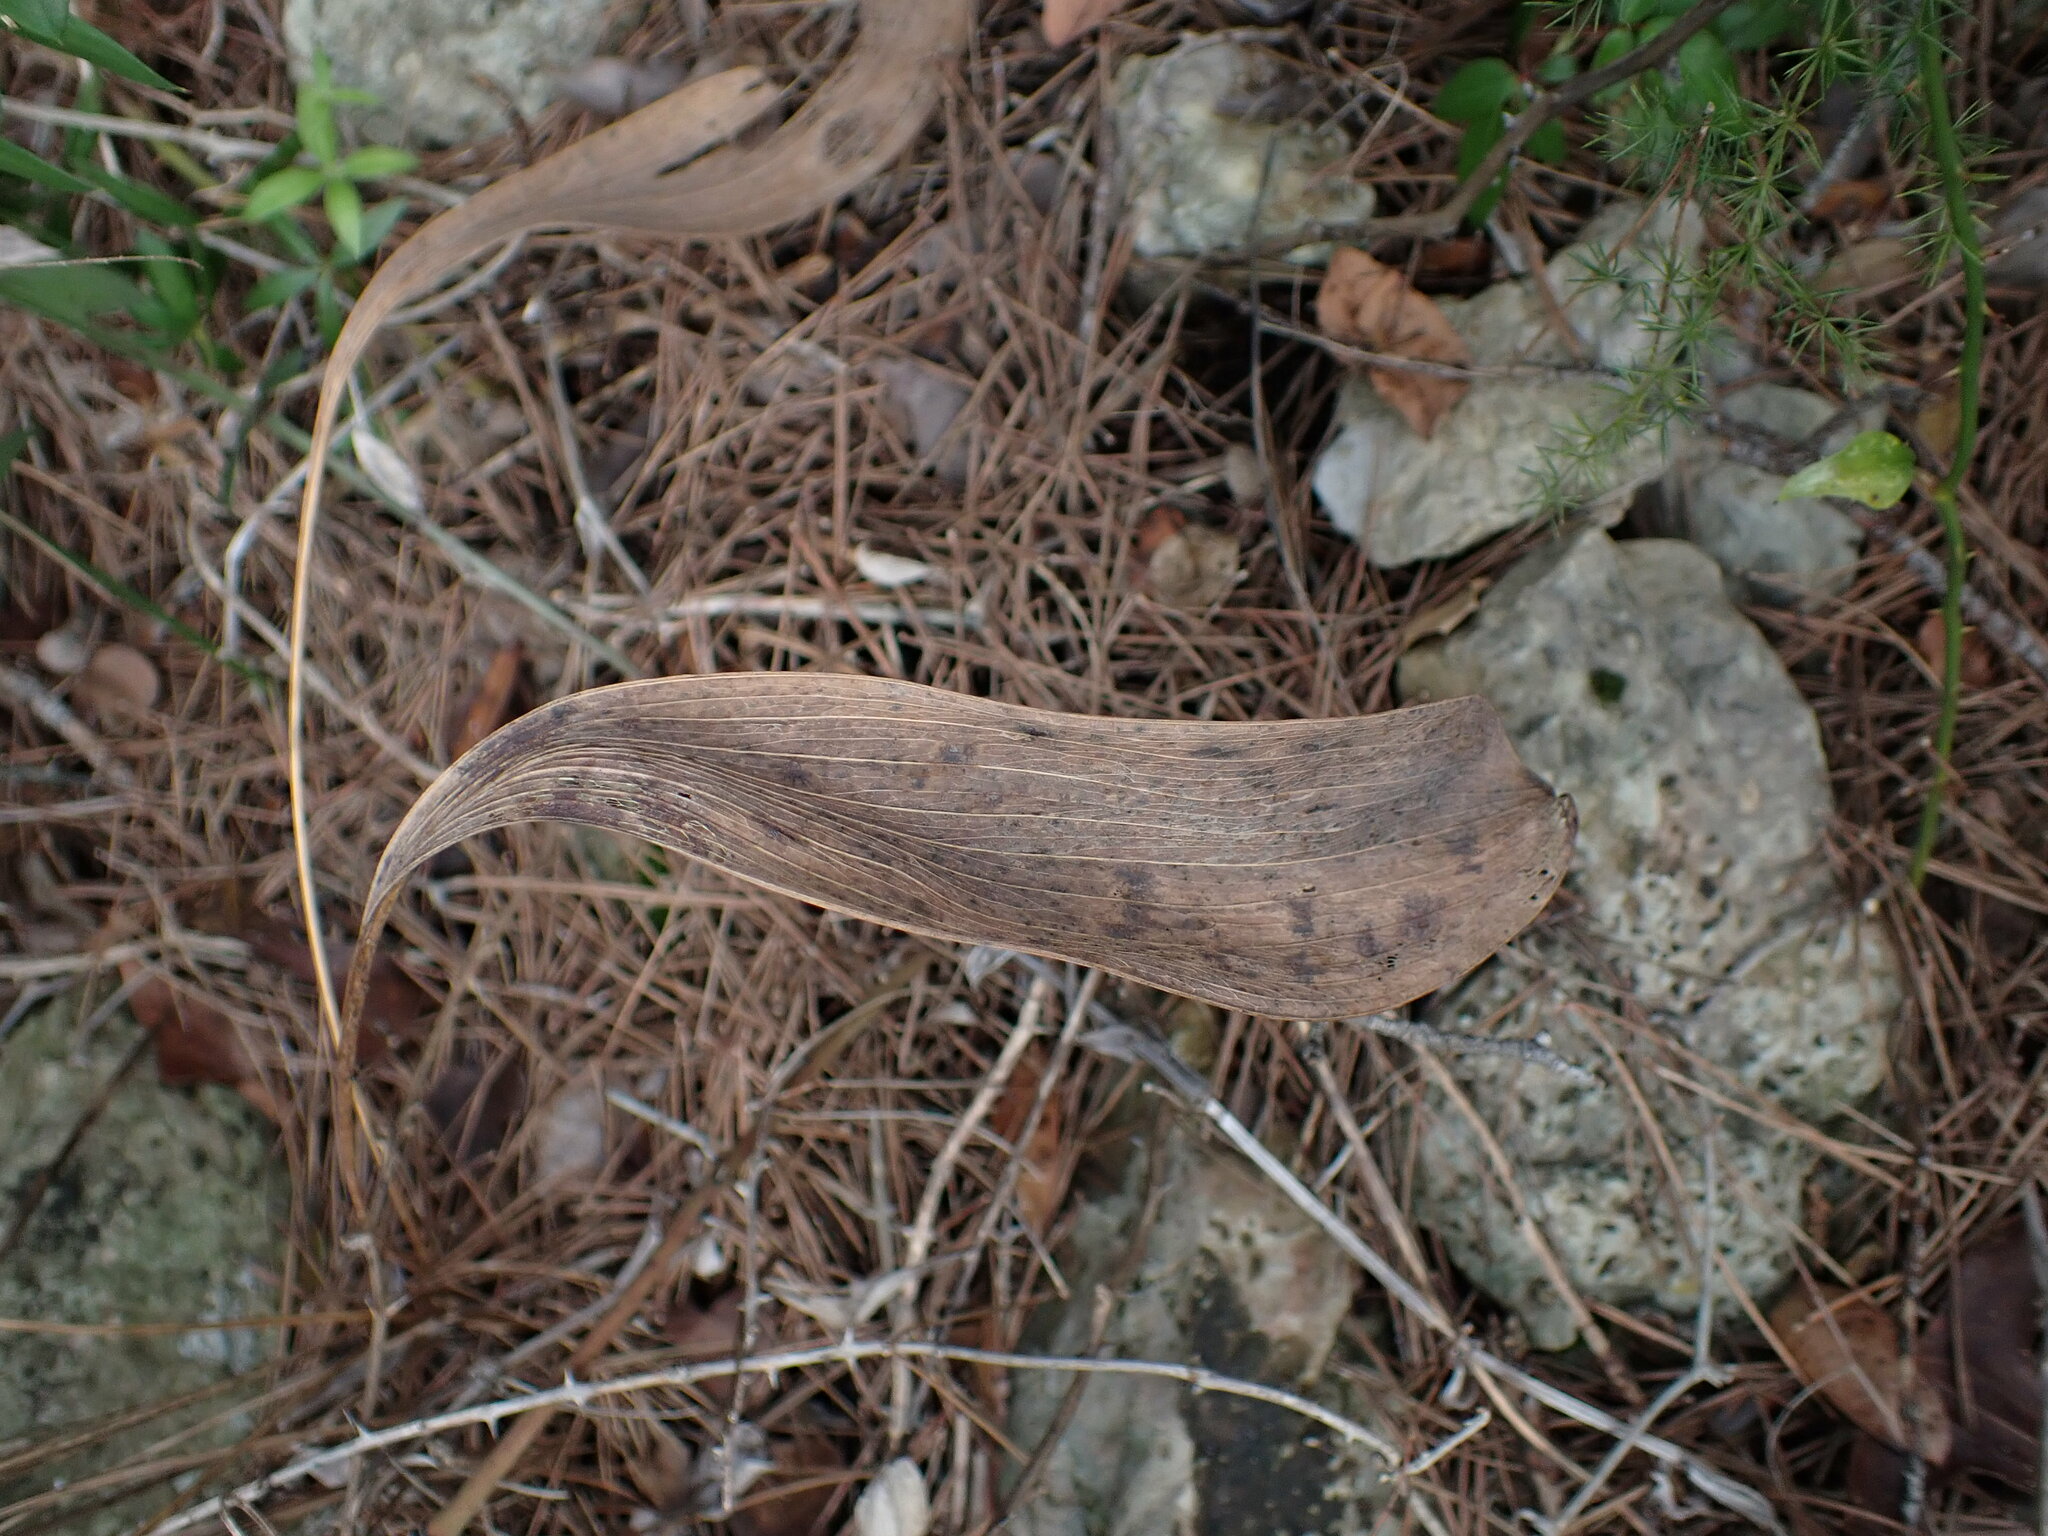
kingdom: Plantae
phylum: Tracheophyta
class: Magnoliopsida
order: Apiales
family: Apiaceae
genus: Bupleurum
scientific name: Bupleurum rigidum
